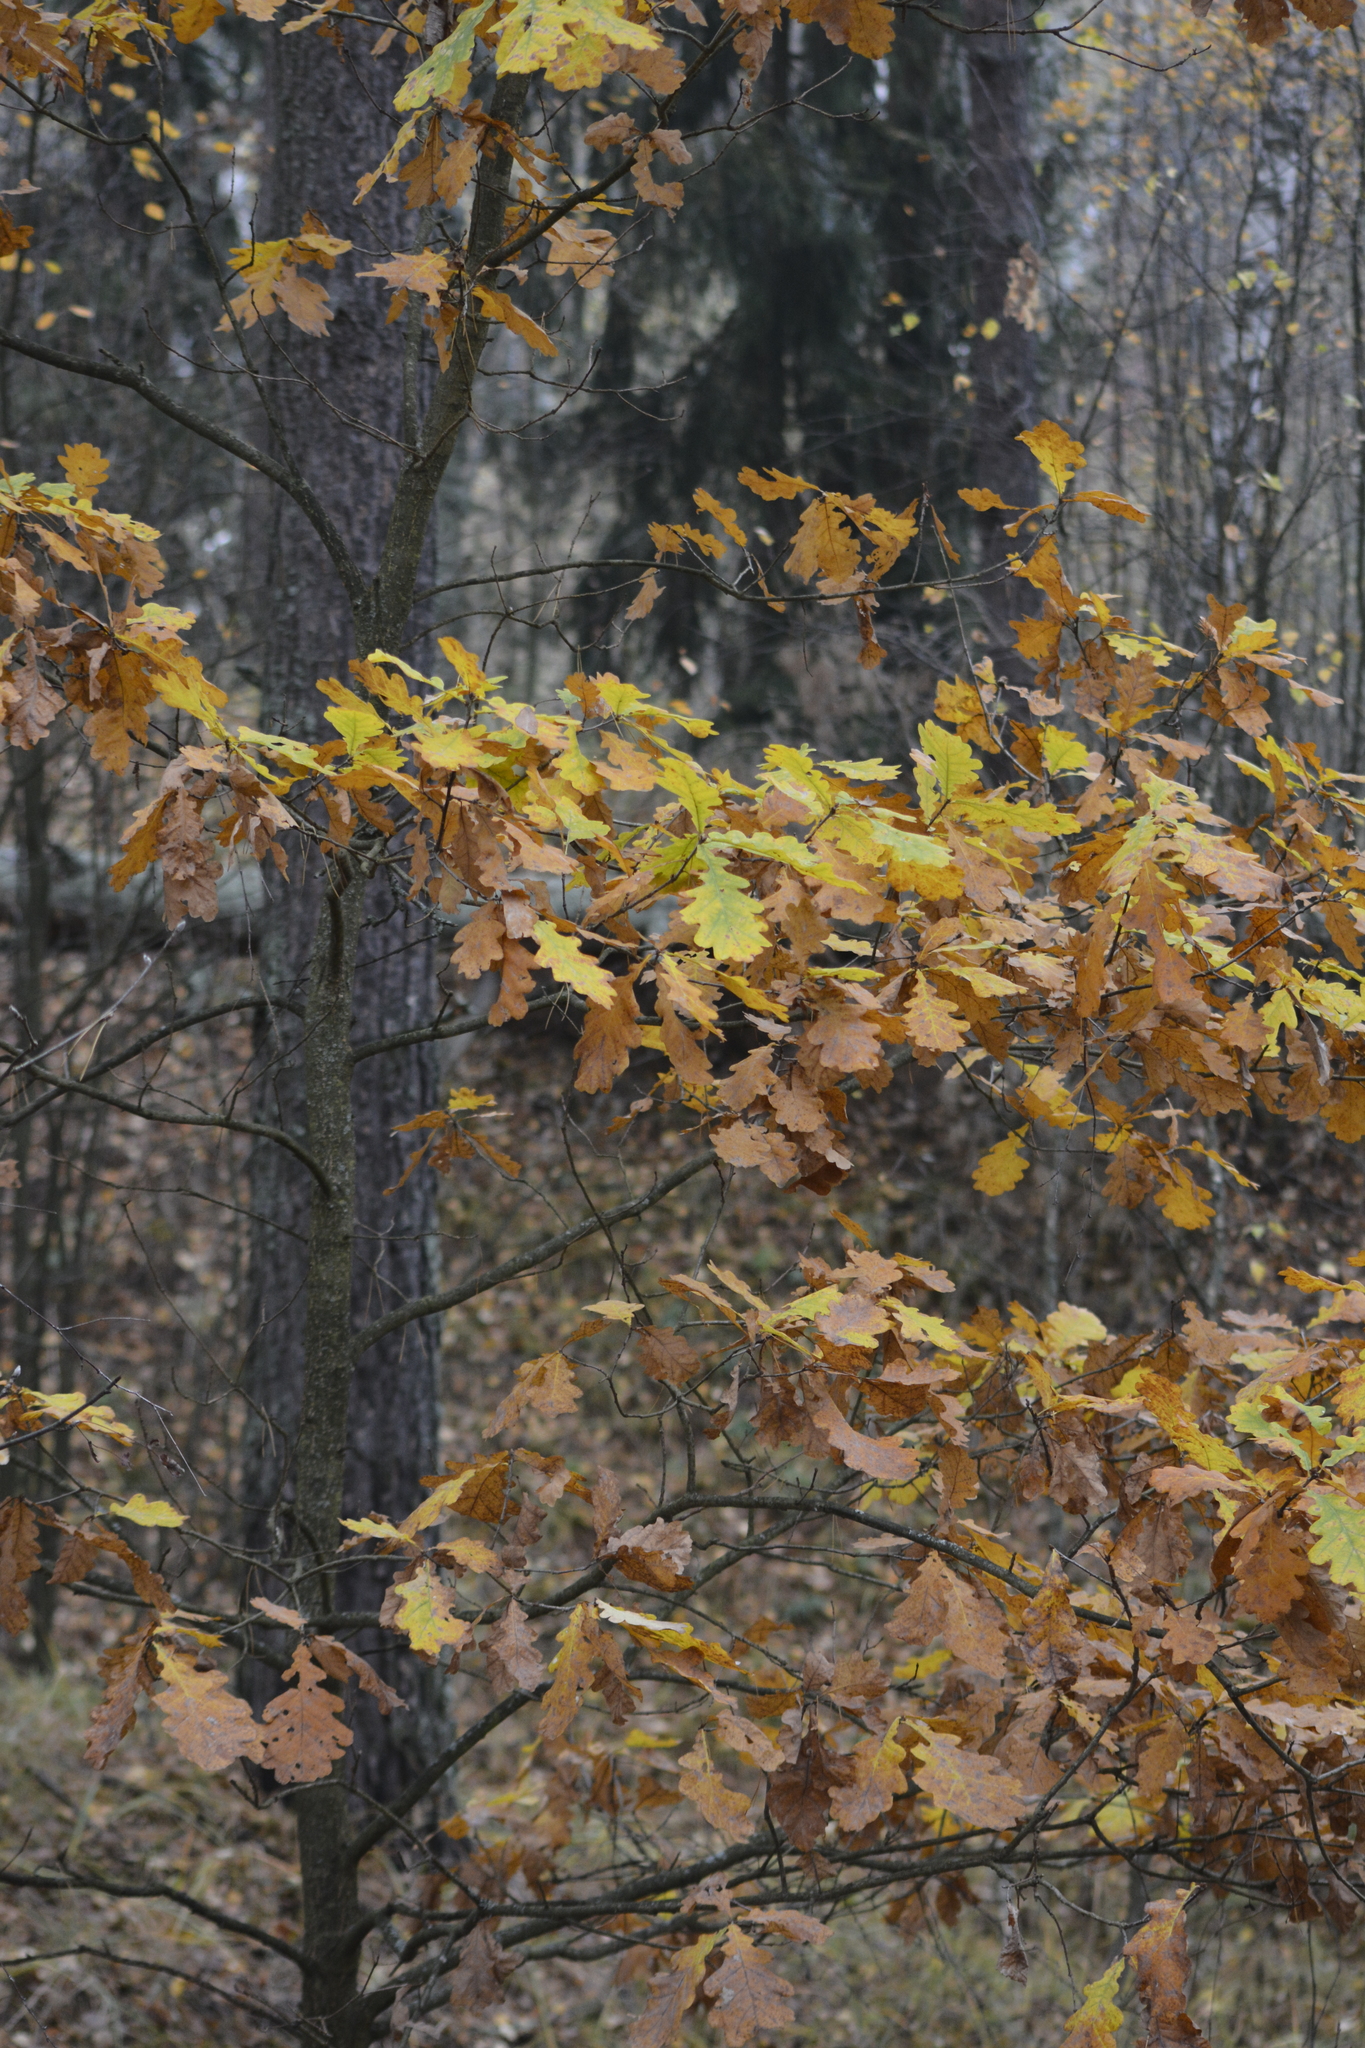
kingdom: Plantae
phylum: Tracheophyta
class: Magnoliopsida
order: Fagales
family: Fagaceae
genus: Quercus
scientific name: Quercus robur
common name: Pedunculate oak
